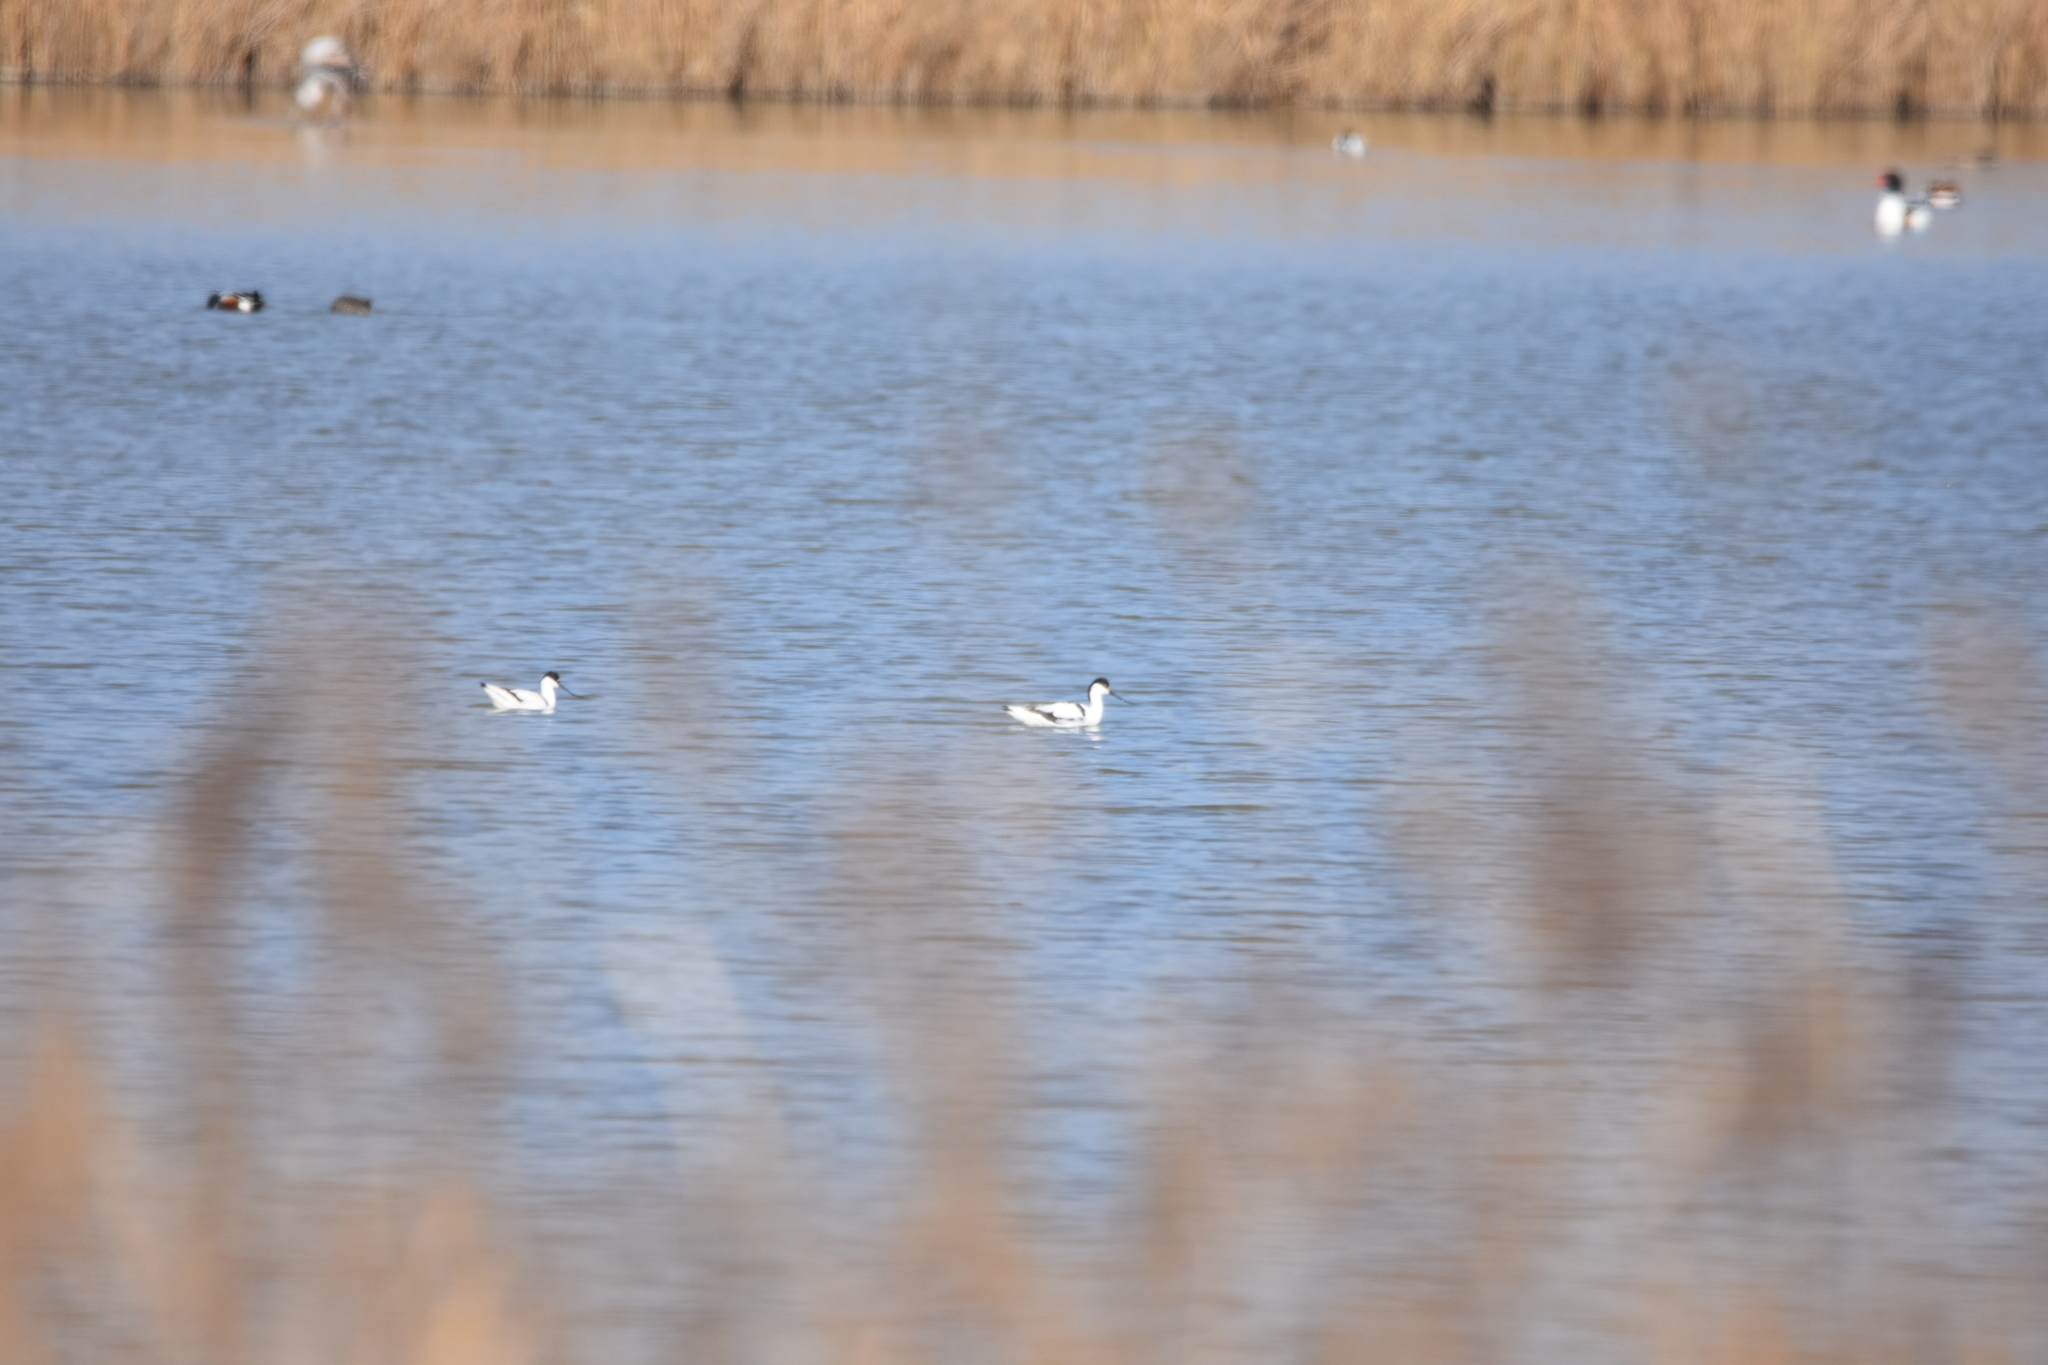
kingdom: Animalia
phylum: Chordata
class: Aves
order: Charadriiformes
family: Recurvirostridae
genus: Recurvirostra
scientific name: Recurvirostra avosetta
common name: Pied avocet
